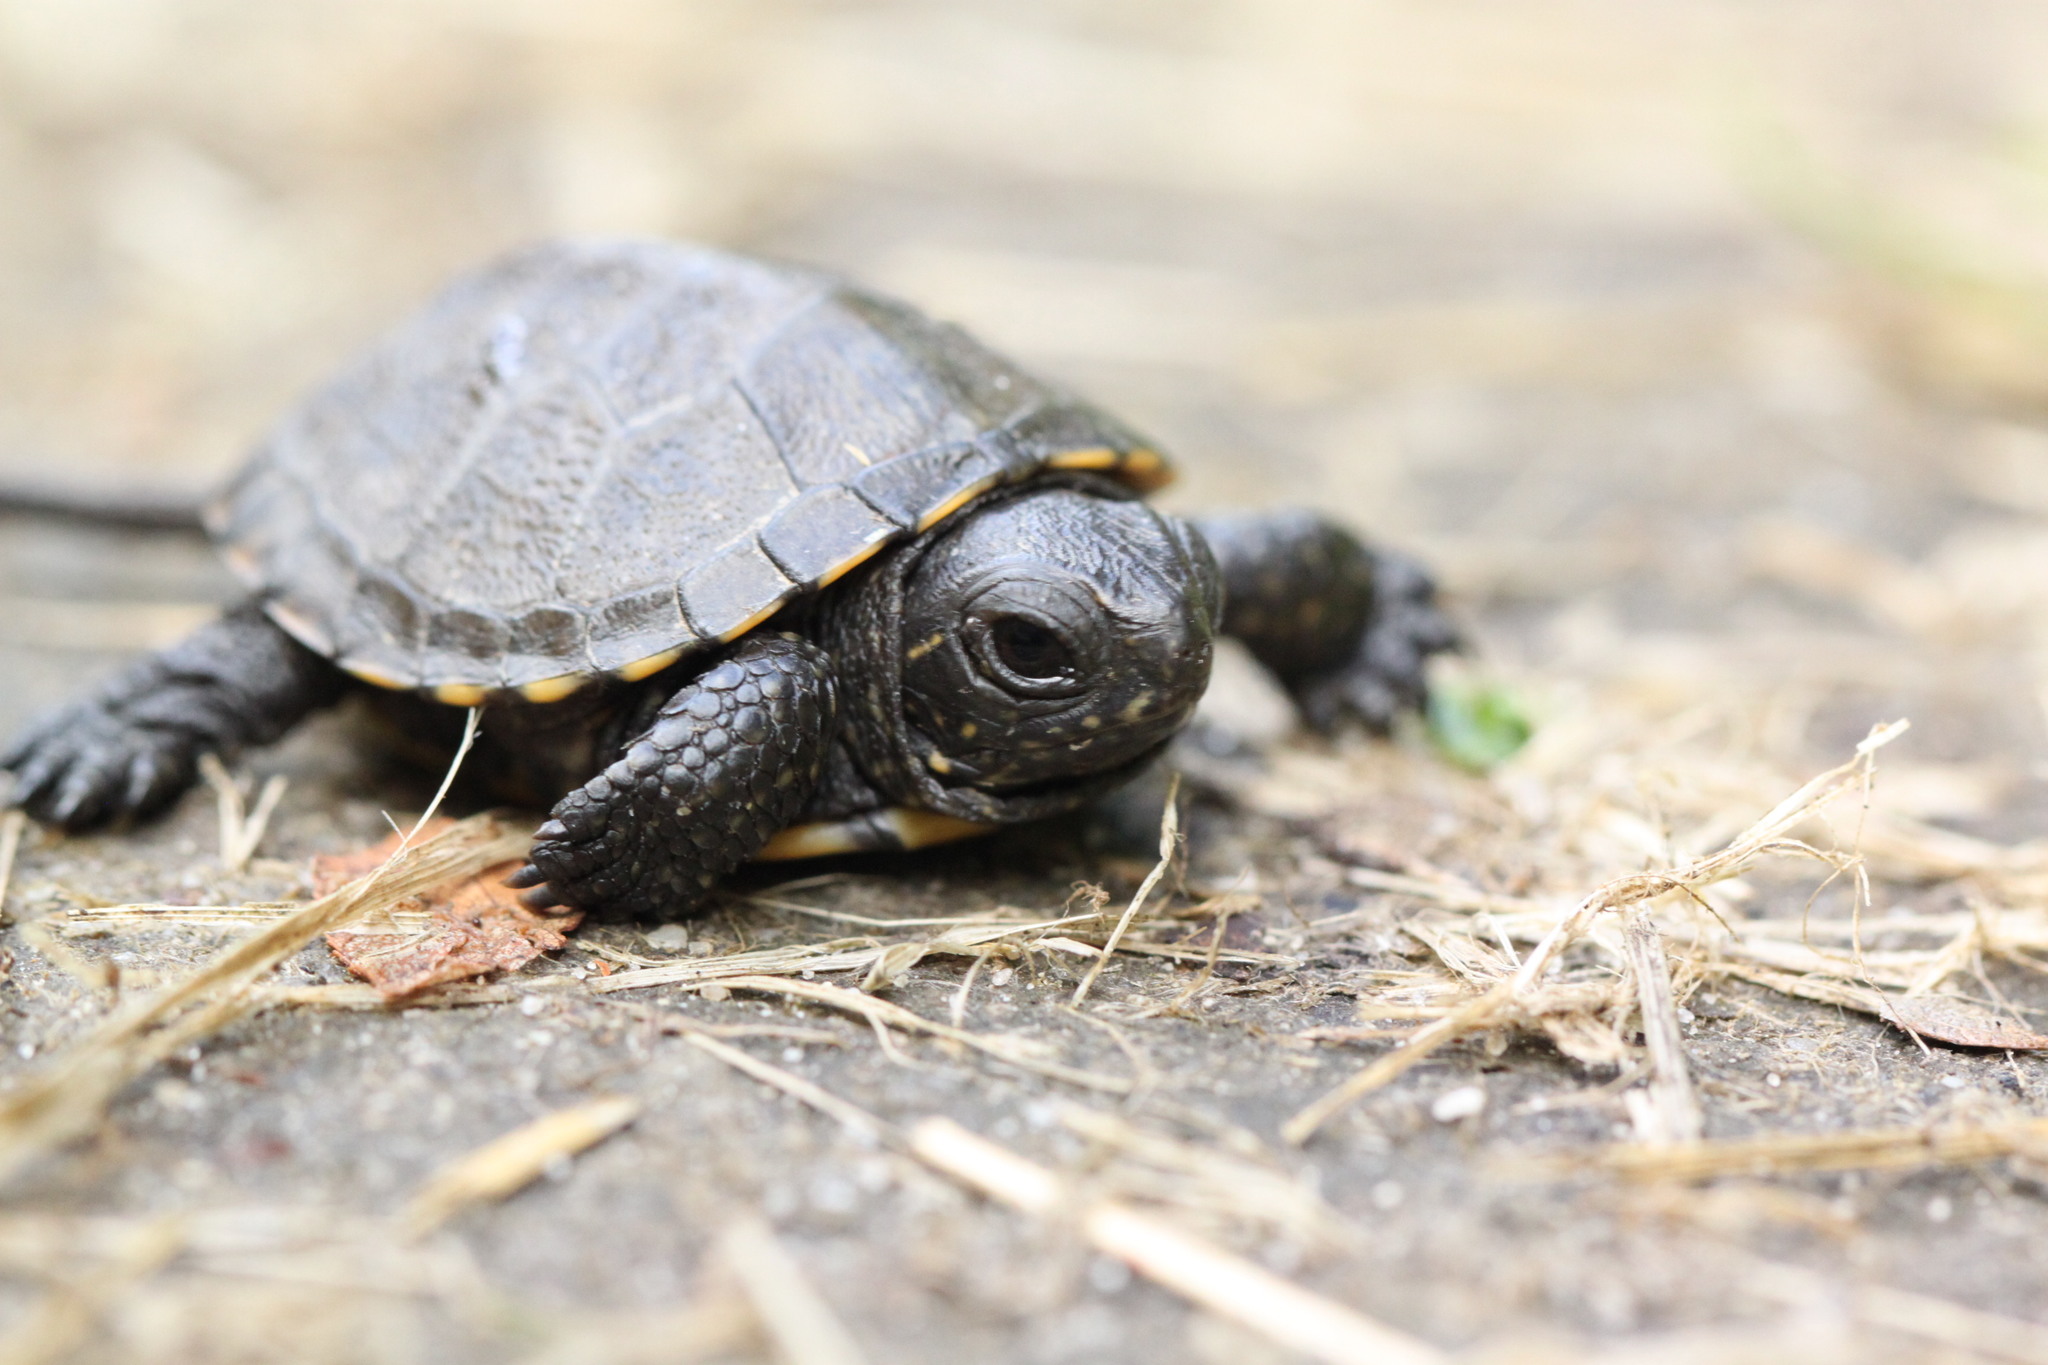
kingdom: Animalia
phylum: Chordata
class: Testudines
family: Emydidae
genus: Emys
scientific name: Emys orbicularis
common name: European pond turtle
